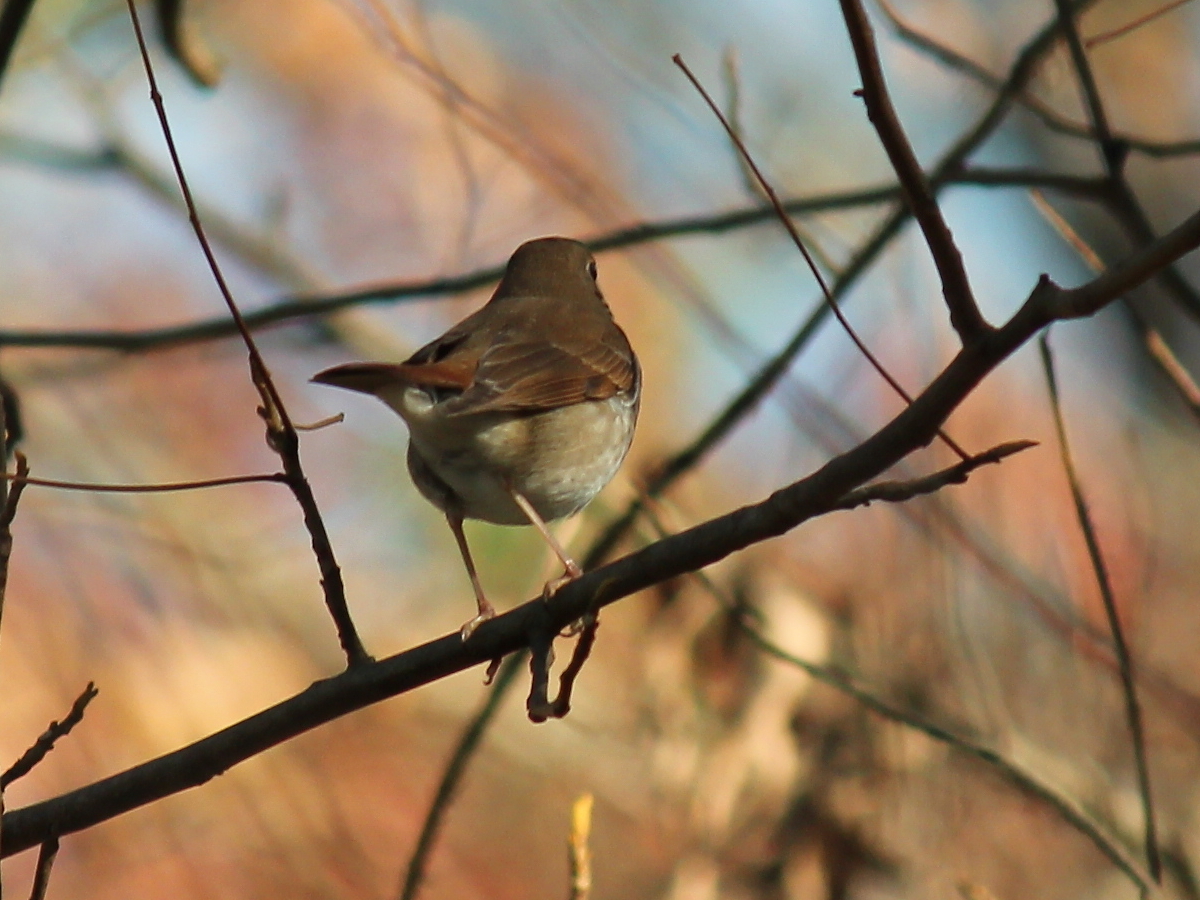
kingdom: Animalia
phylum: Chordata
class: Aves
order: Passeriformes
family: Turdidae
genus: Catharus
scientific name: Catharus guttatus
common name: Hermit thrush
